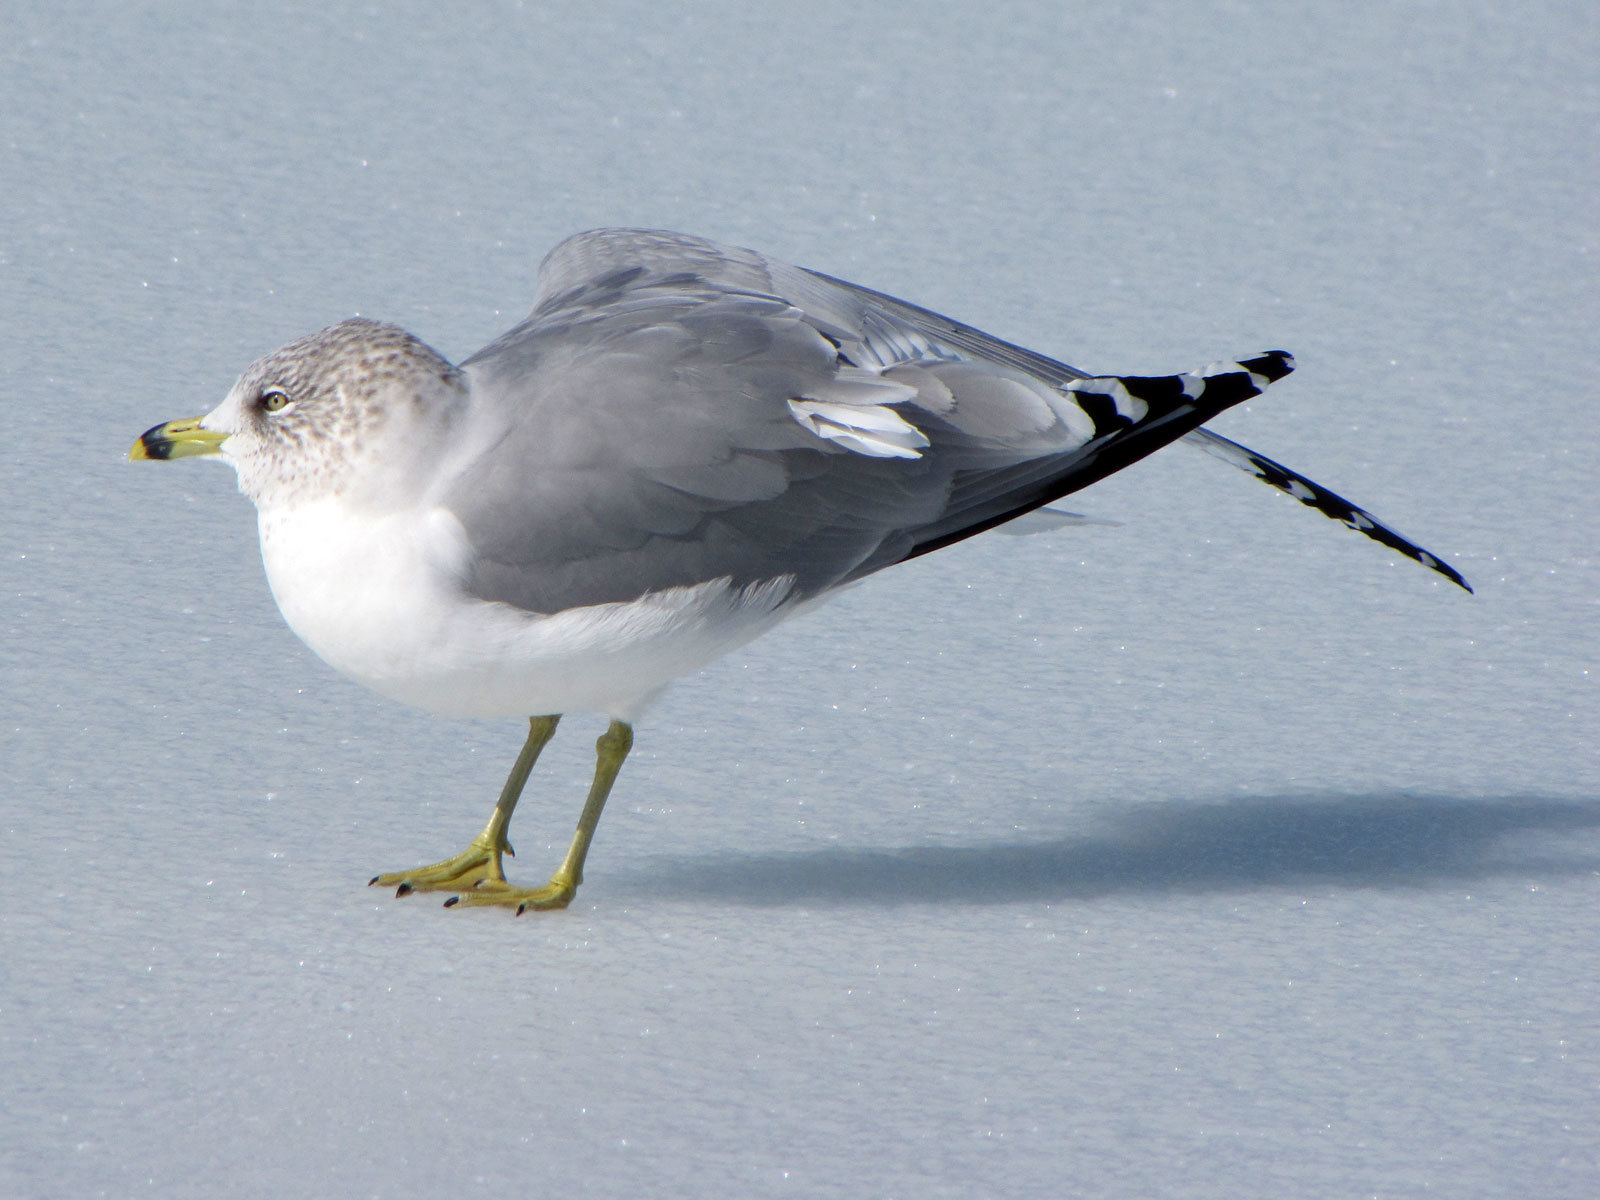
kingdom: Animalia
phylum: Chordata
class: Aves
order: Charadriiformes
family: Laridae
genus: Larus
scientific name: Larus delawarensis
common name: Ring-billed gull
